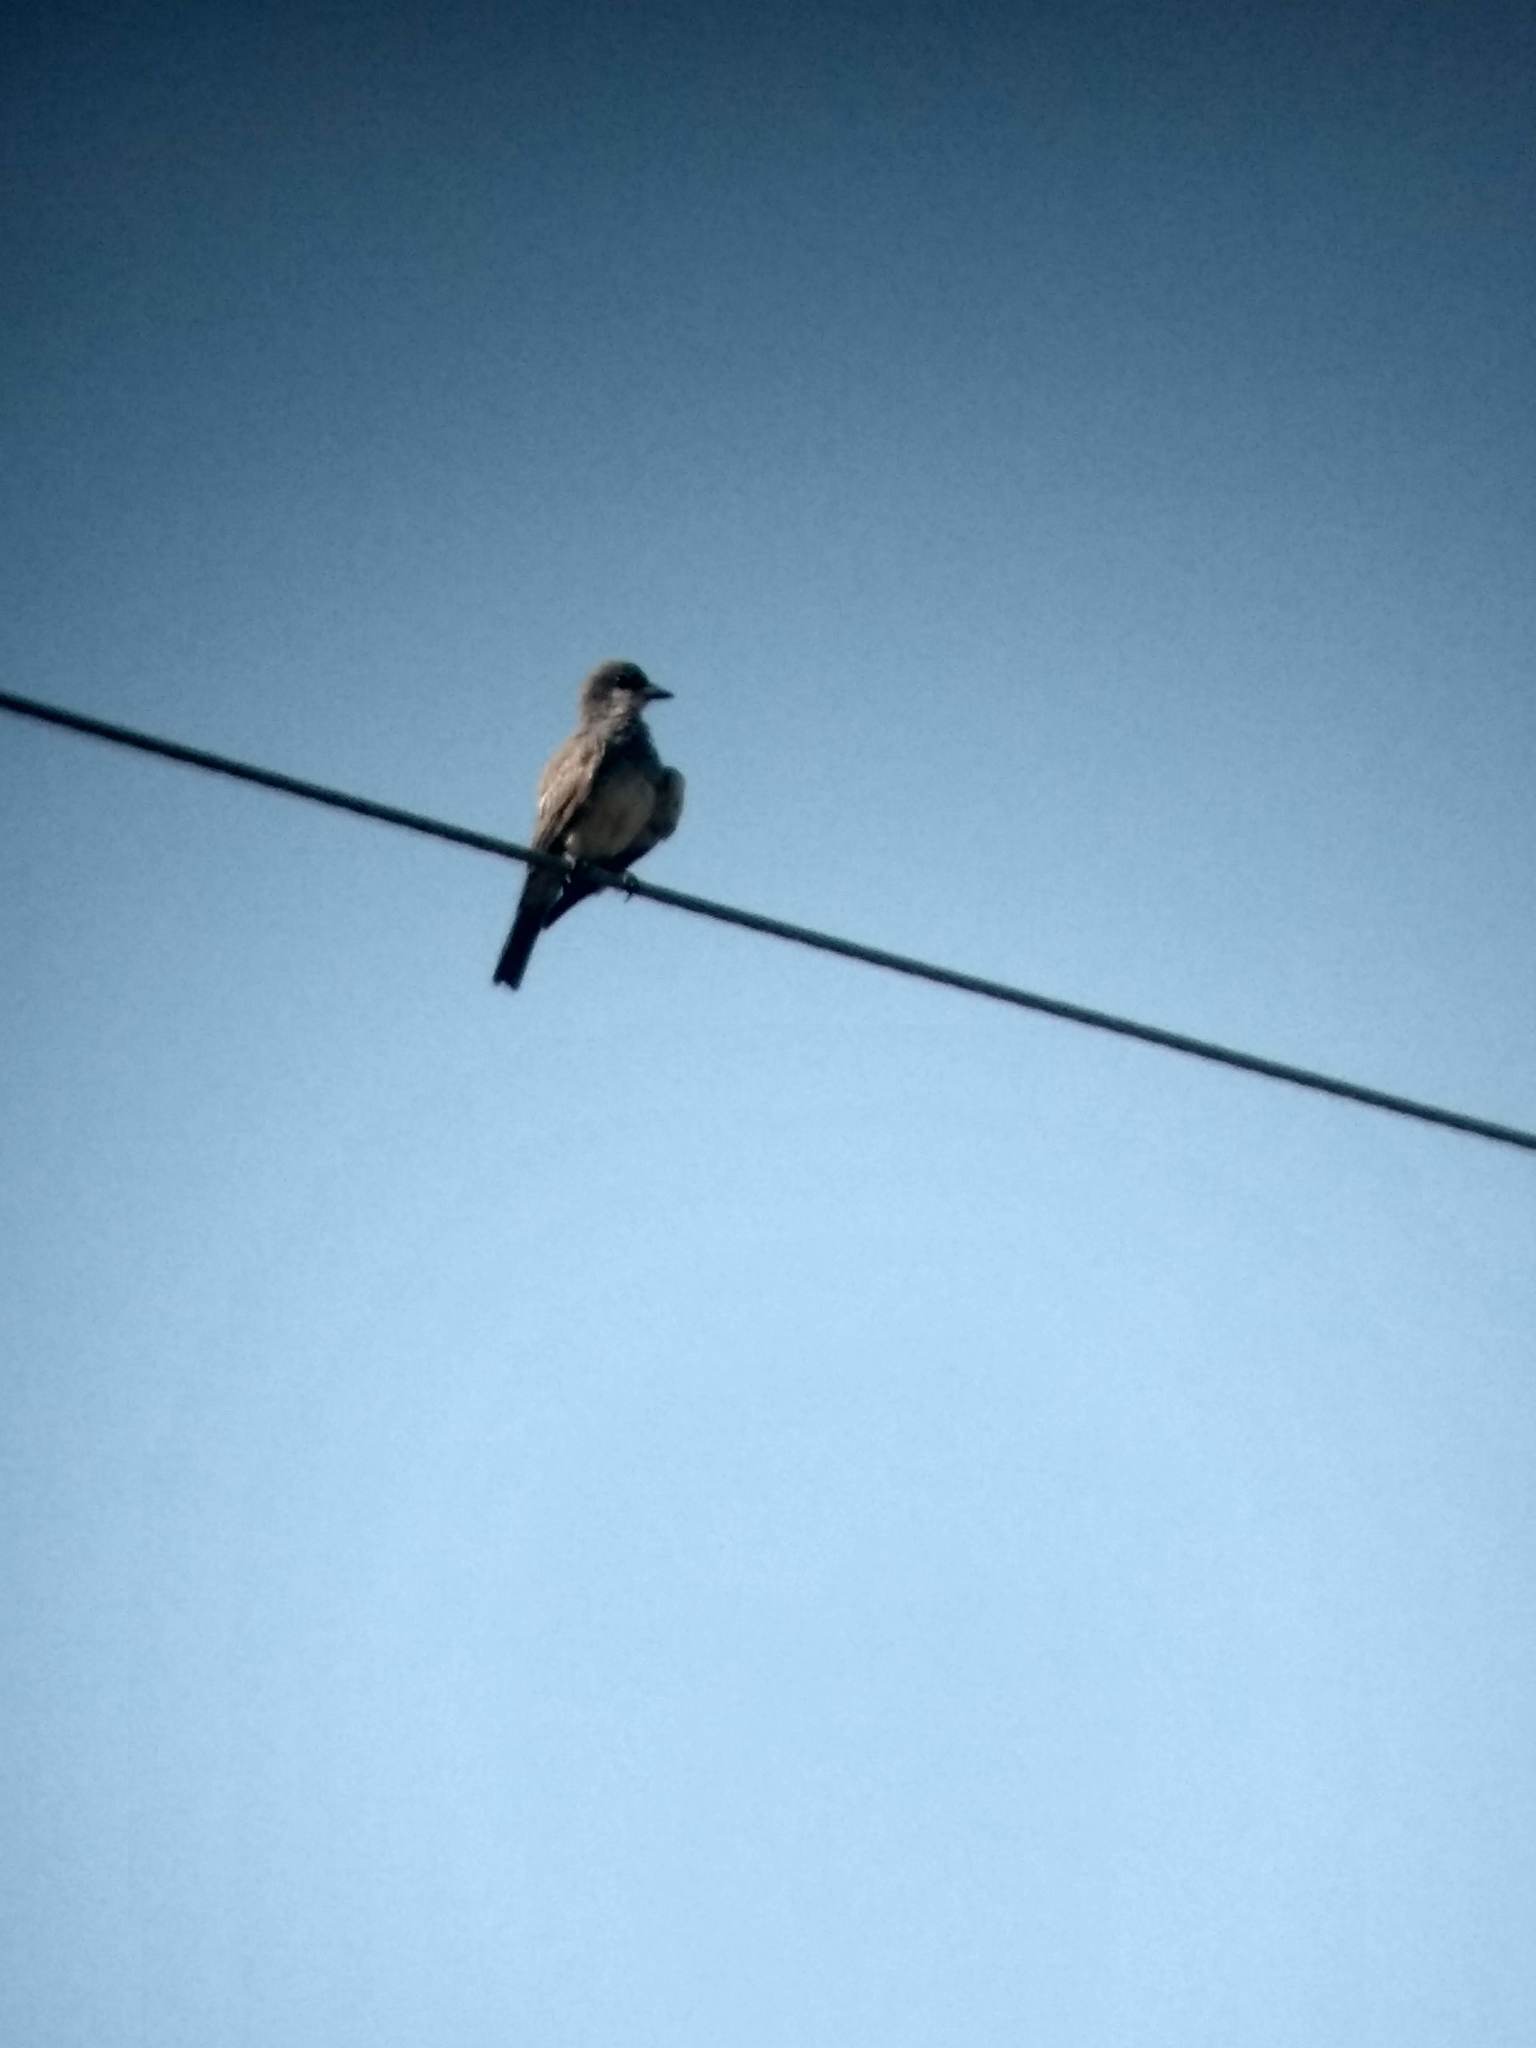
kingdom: Animalia
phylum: Chordata
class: Aves
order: Passeriformes
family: Tyrannidae
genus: Tyrannus
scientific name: Tyrannus vociferans
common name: Cassin's kingbird
